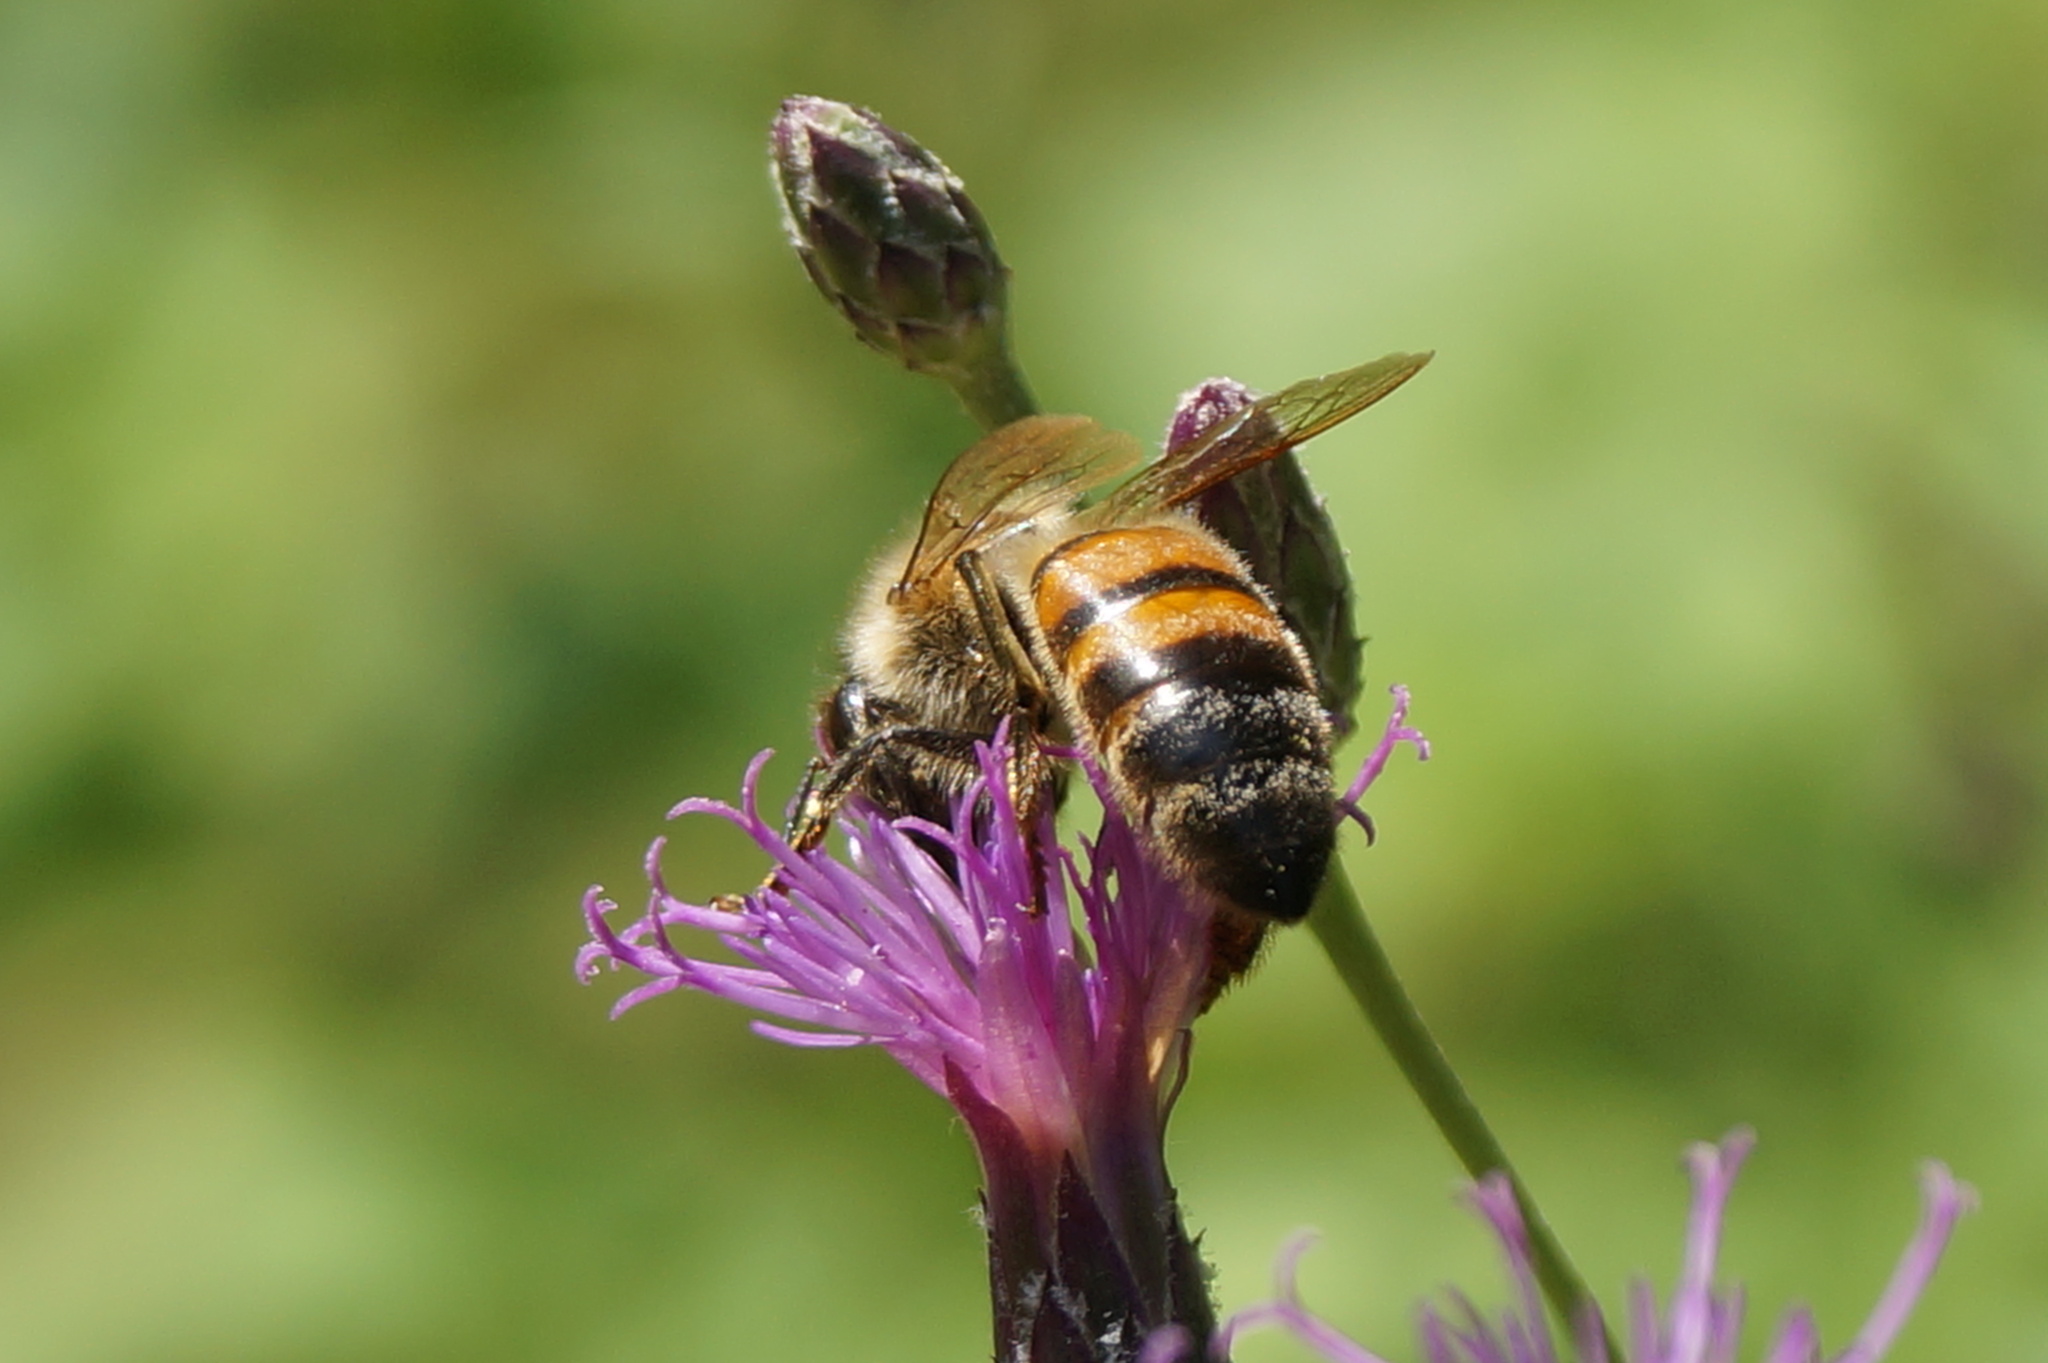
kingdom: Animalia
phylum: Arthropoda
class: Insecta
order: Hymenoptera
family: Apidae
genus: Apis
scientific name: Apis mellifera
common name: Honey bee
